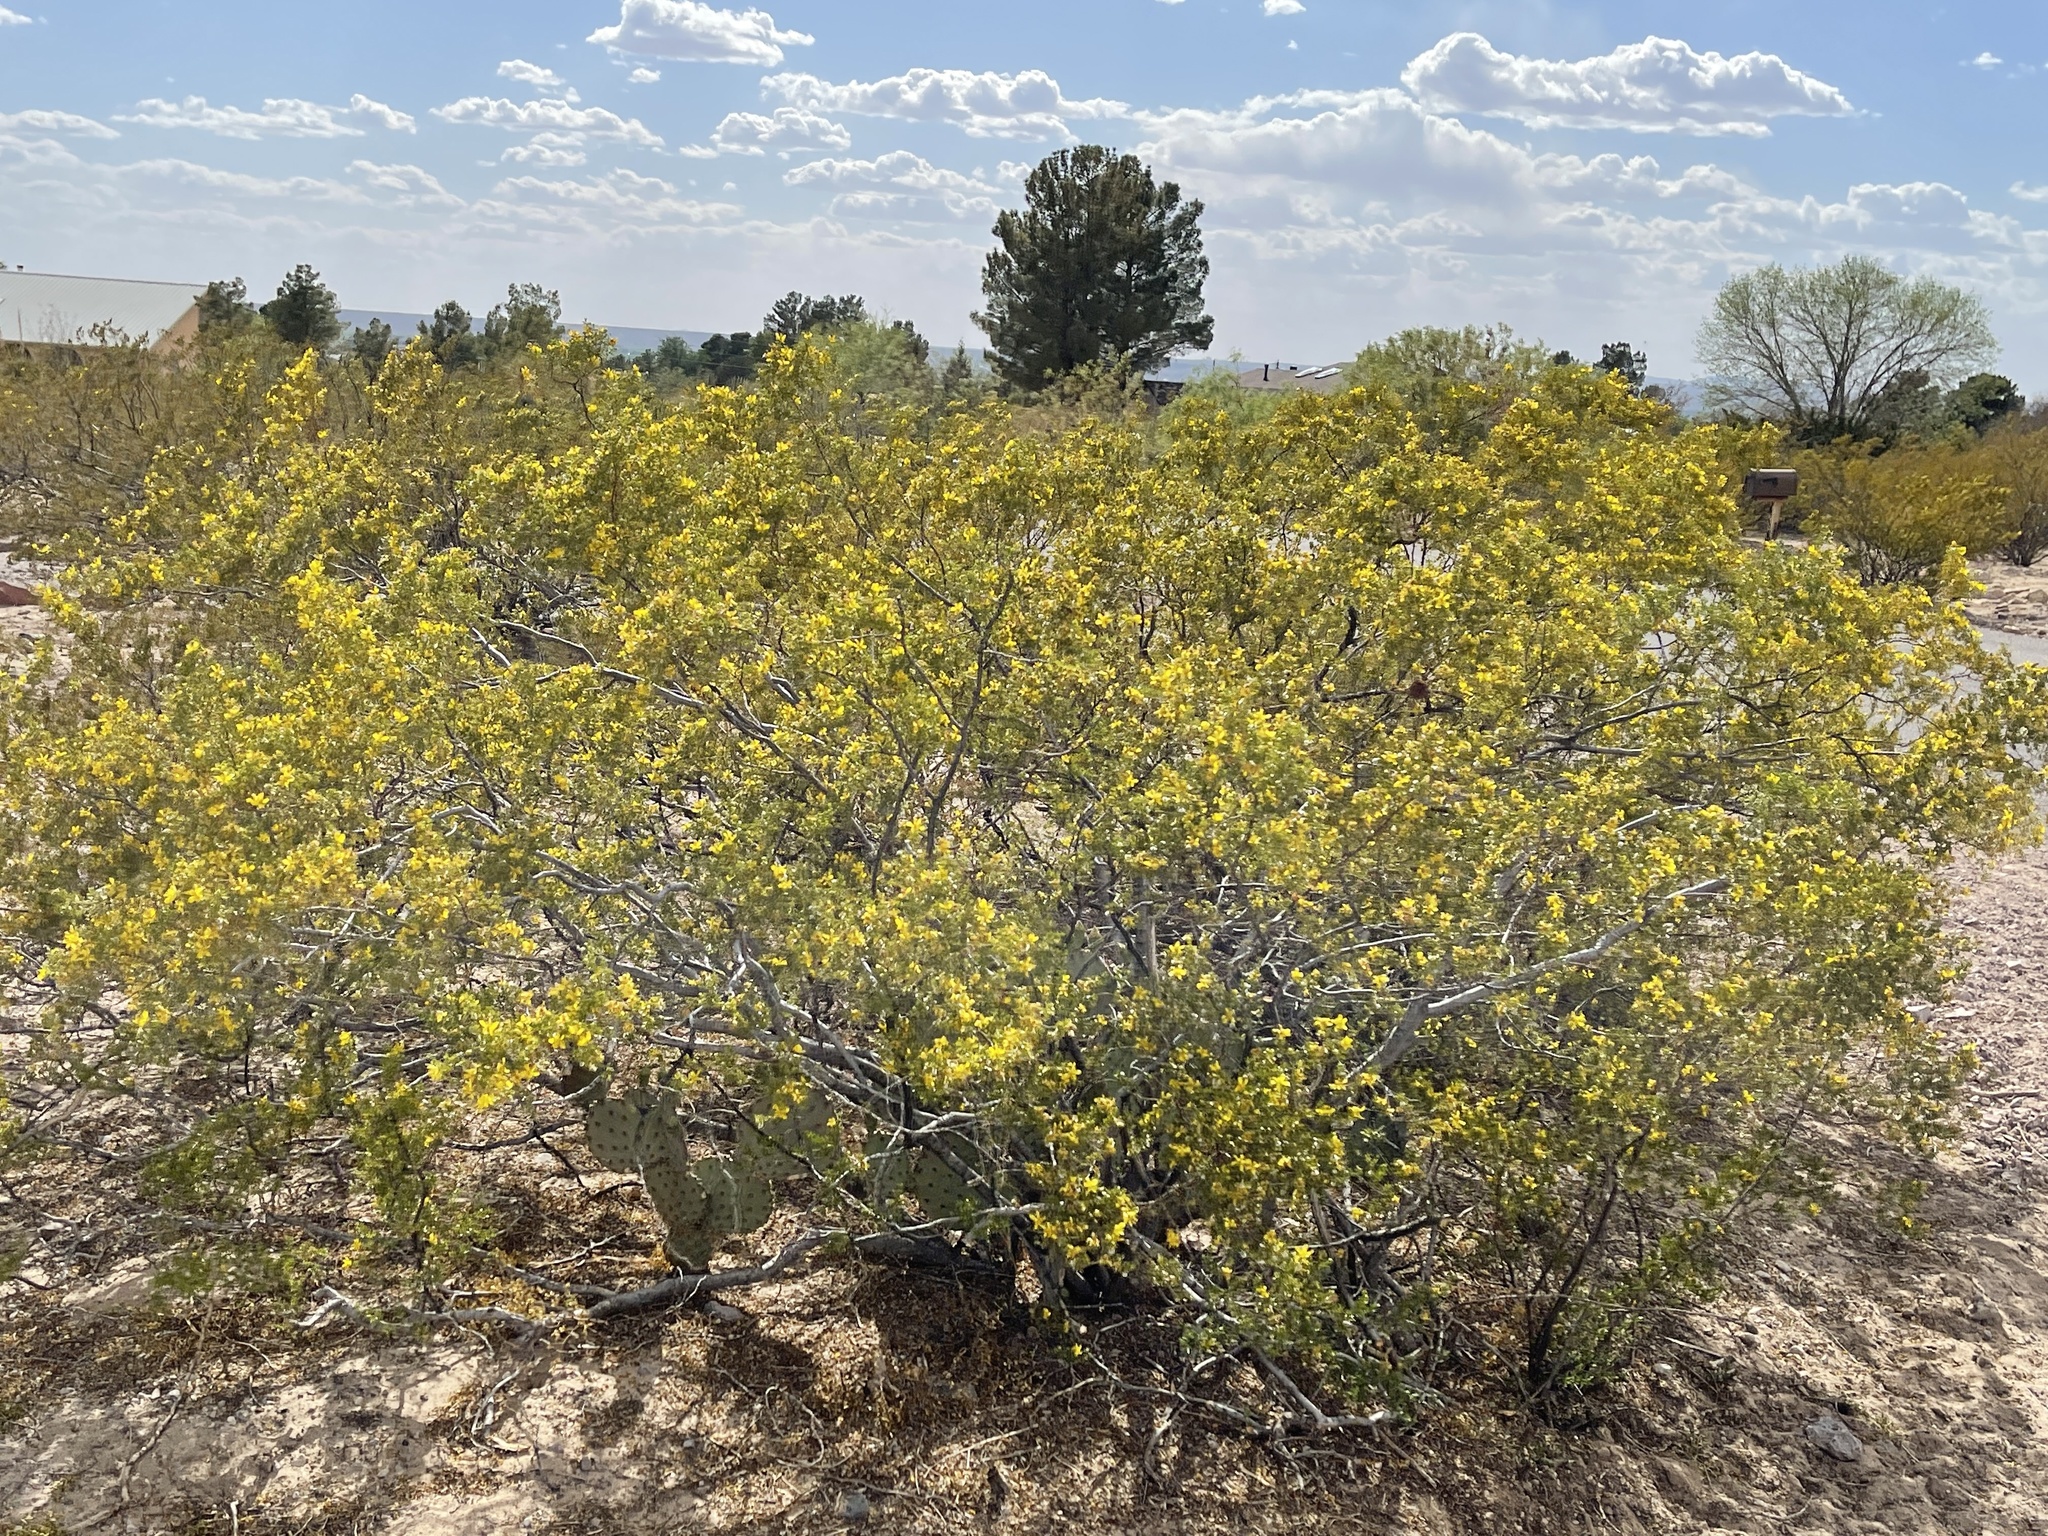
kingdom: Plantae
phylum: Tracheophyta
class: Magnoliopsida
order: Zygophyllales
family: Zygophyllaceae
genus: Larrea
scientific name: Larrea tridentata
